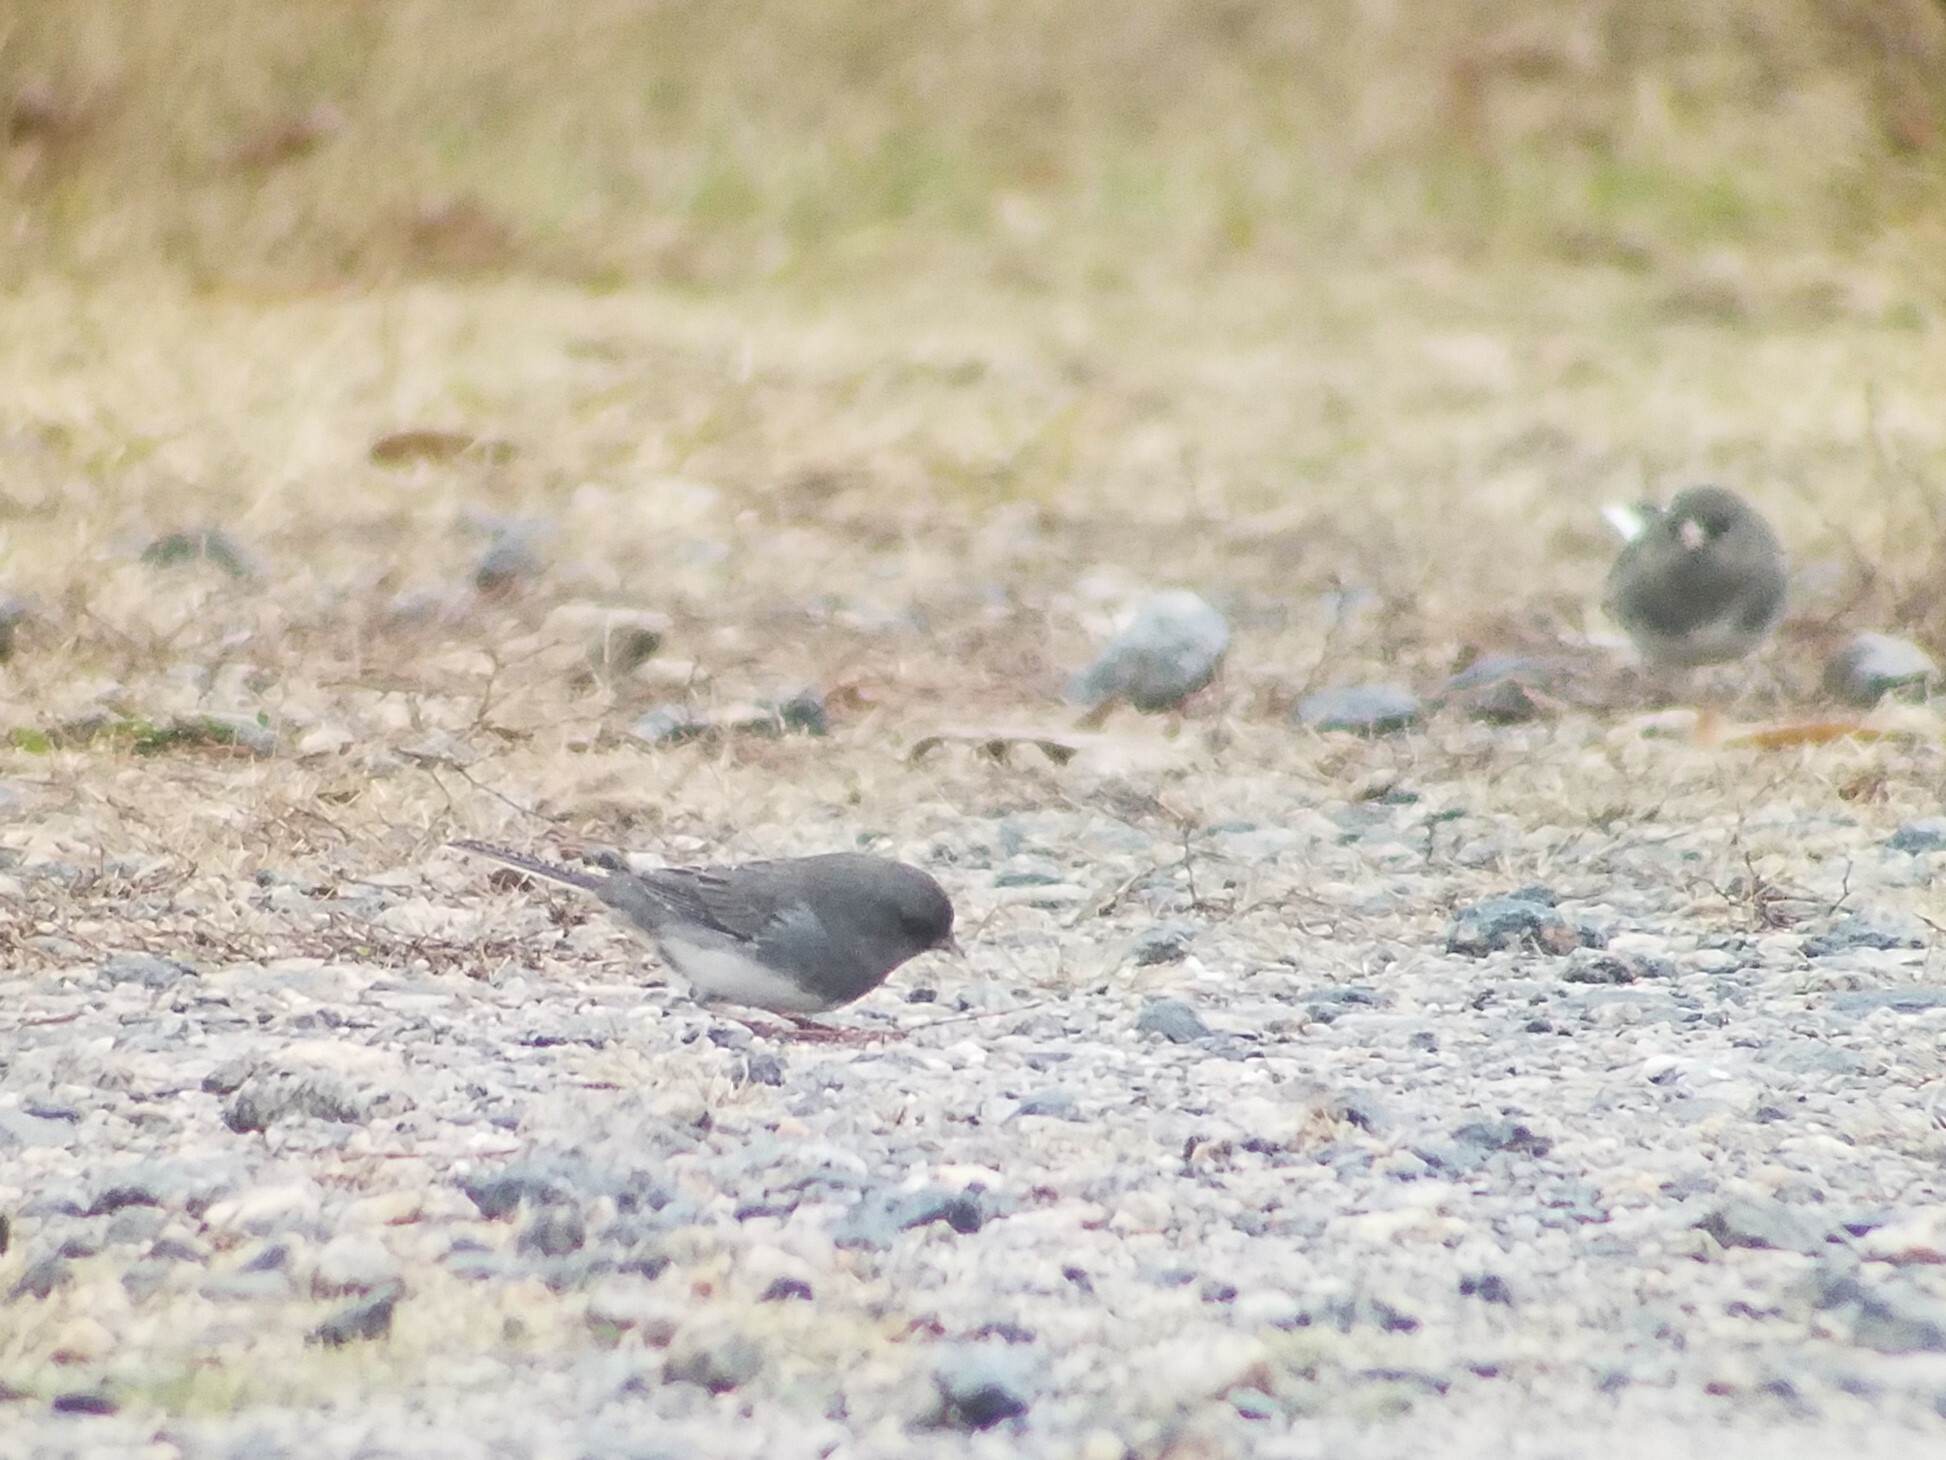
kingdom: Animalia
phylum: Chordata
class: Aves
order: Passeriformes
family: Passerellidae
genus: Junco
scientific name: Junco hyemalis
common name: Dark-eyed junco
